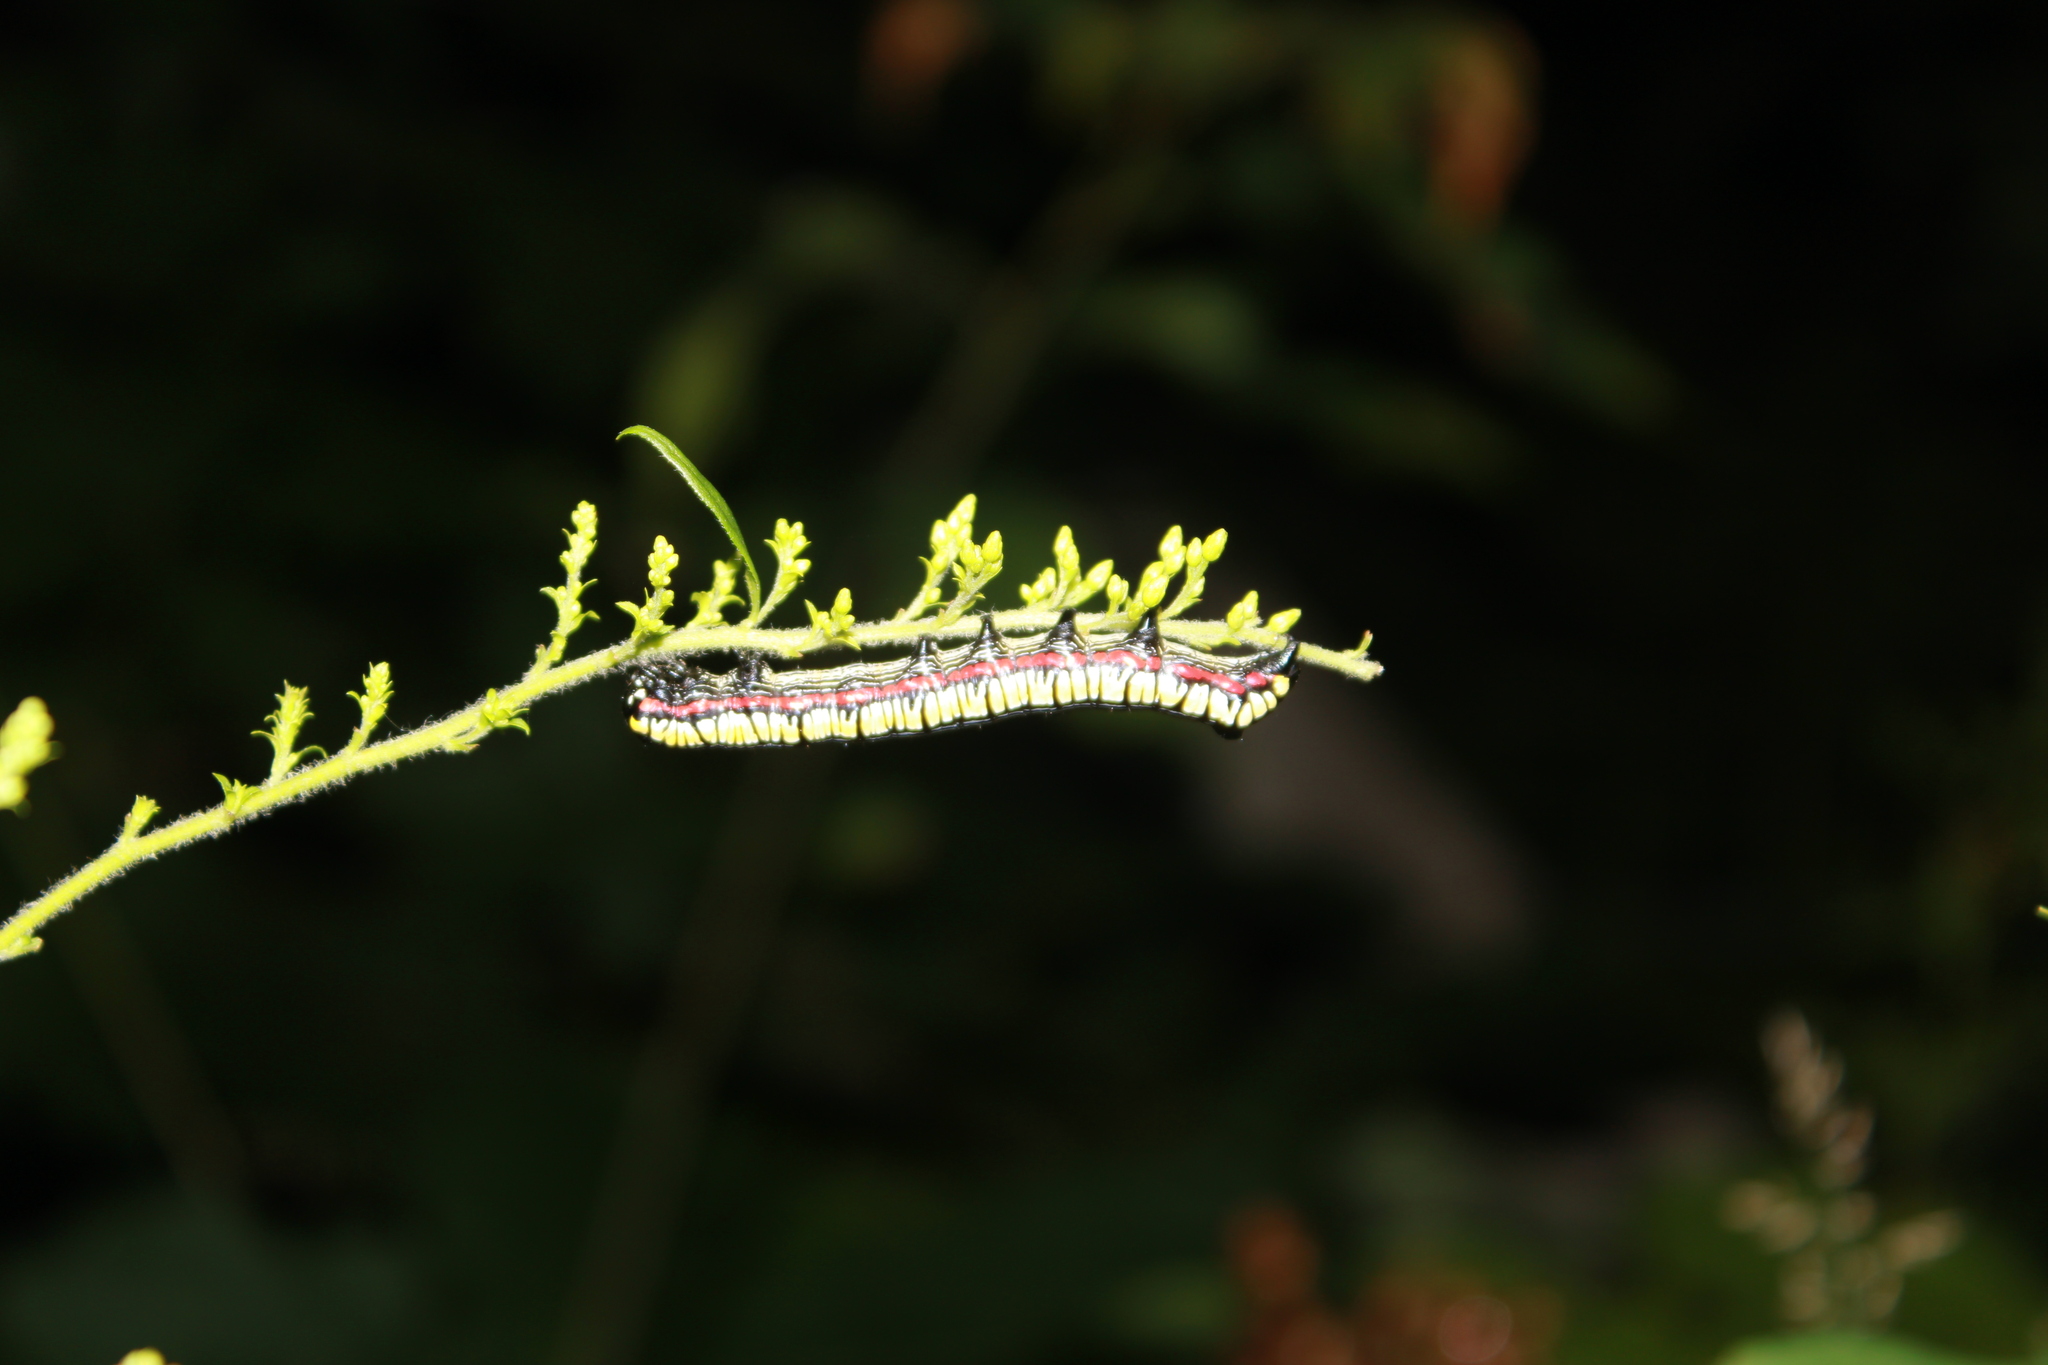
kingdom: Animalia
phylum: Arthropoda
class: Insecta
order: Lepidoptera
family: Noctuidae
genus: Cucullia
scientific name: Cucullia convexipennis
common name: Brown-hooded owlet
